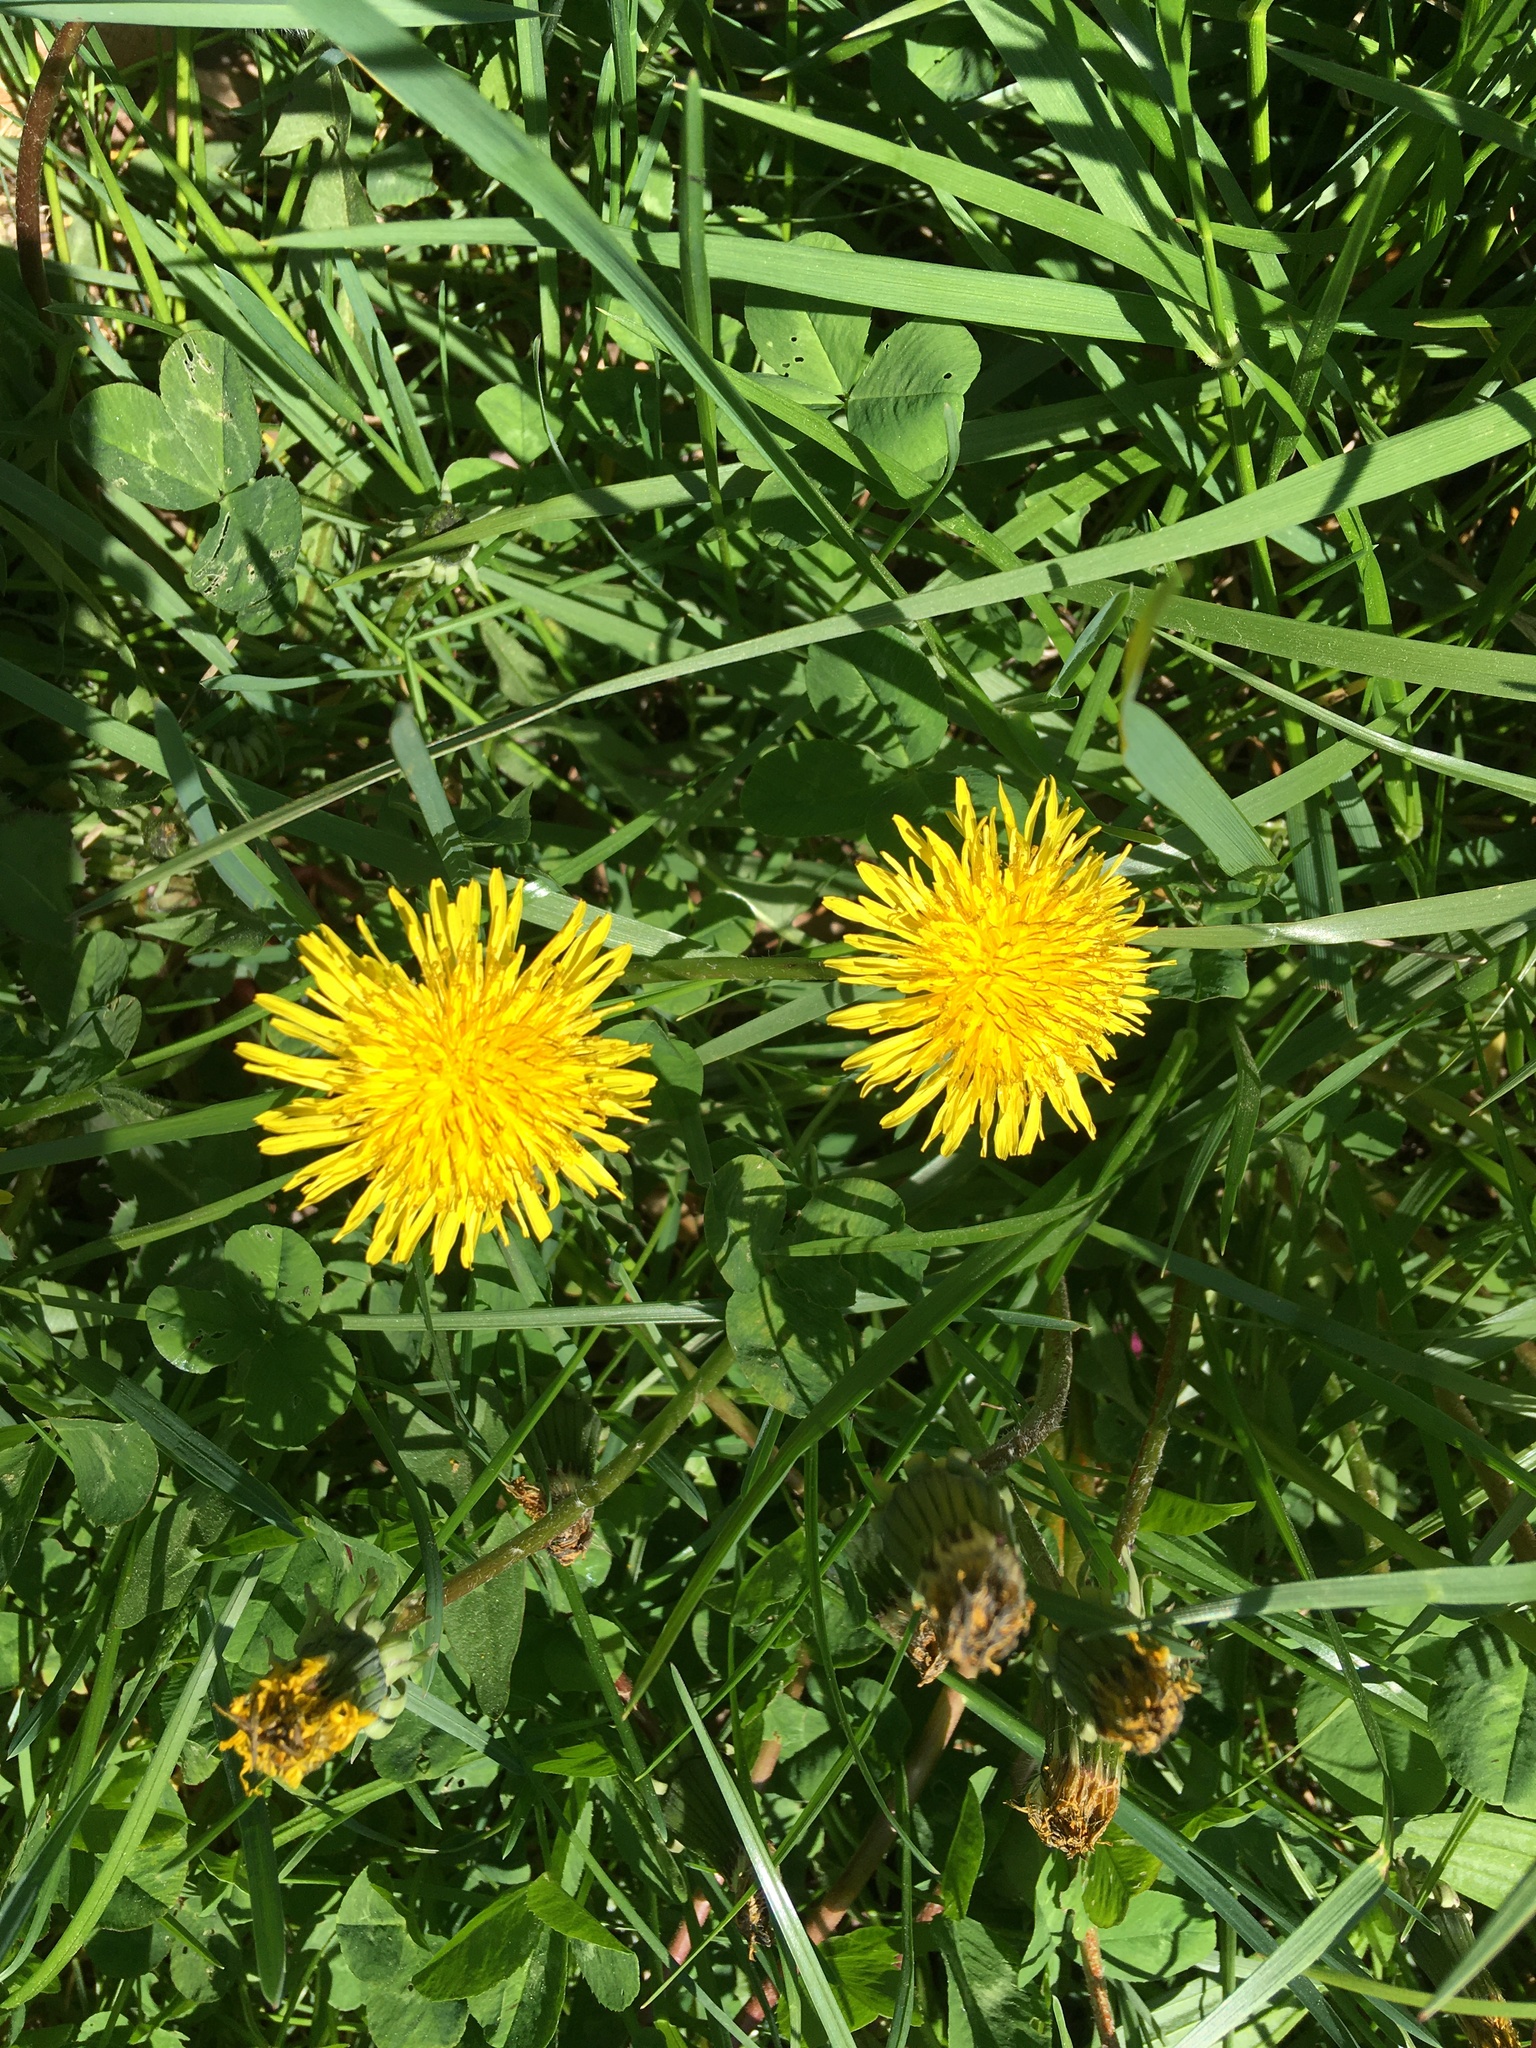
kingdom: Plantae
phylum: Tracheophyta
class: Magnoliopsida
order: Asterales
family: Asteraceae
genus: Taraxacum
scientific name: Taraxacum
